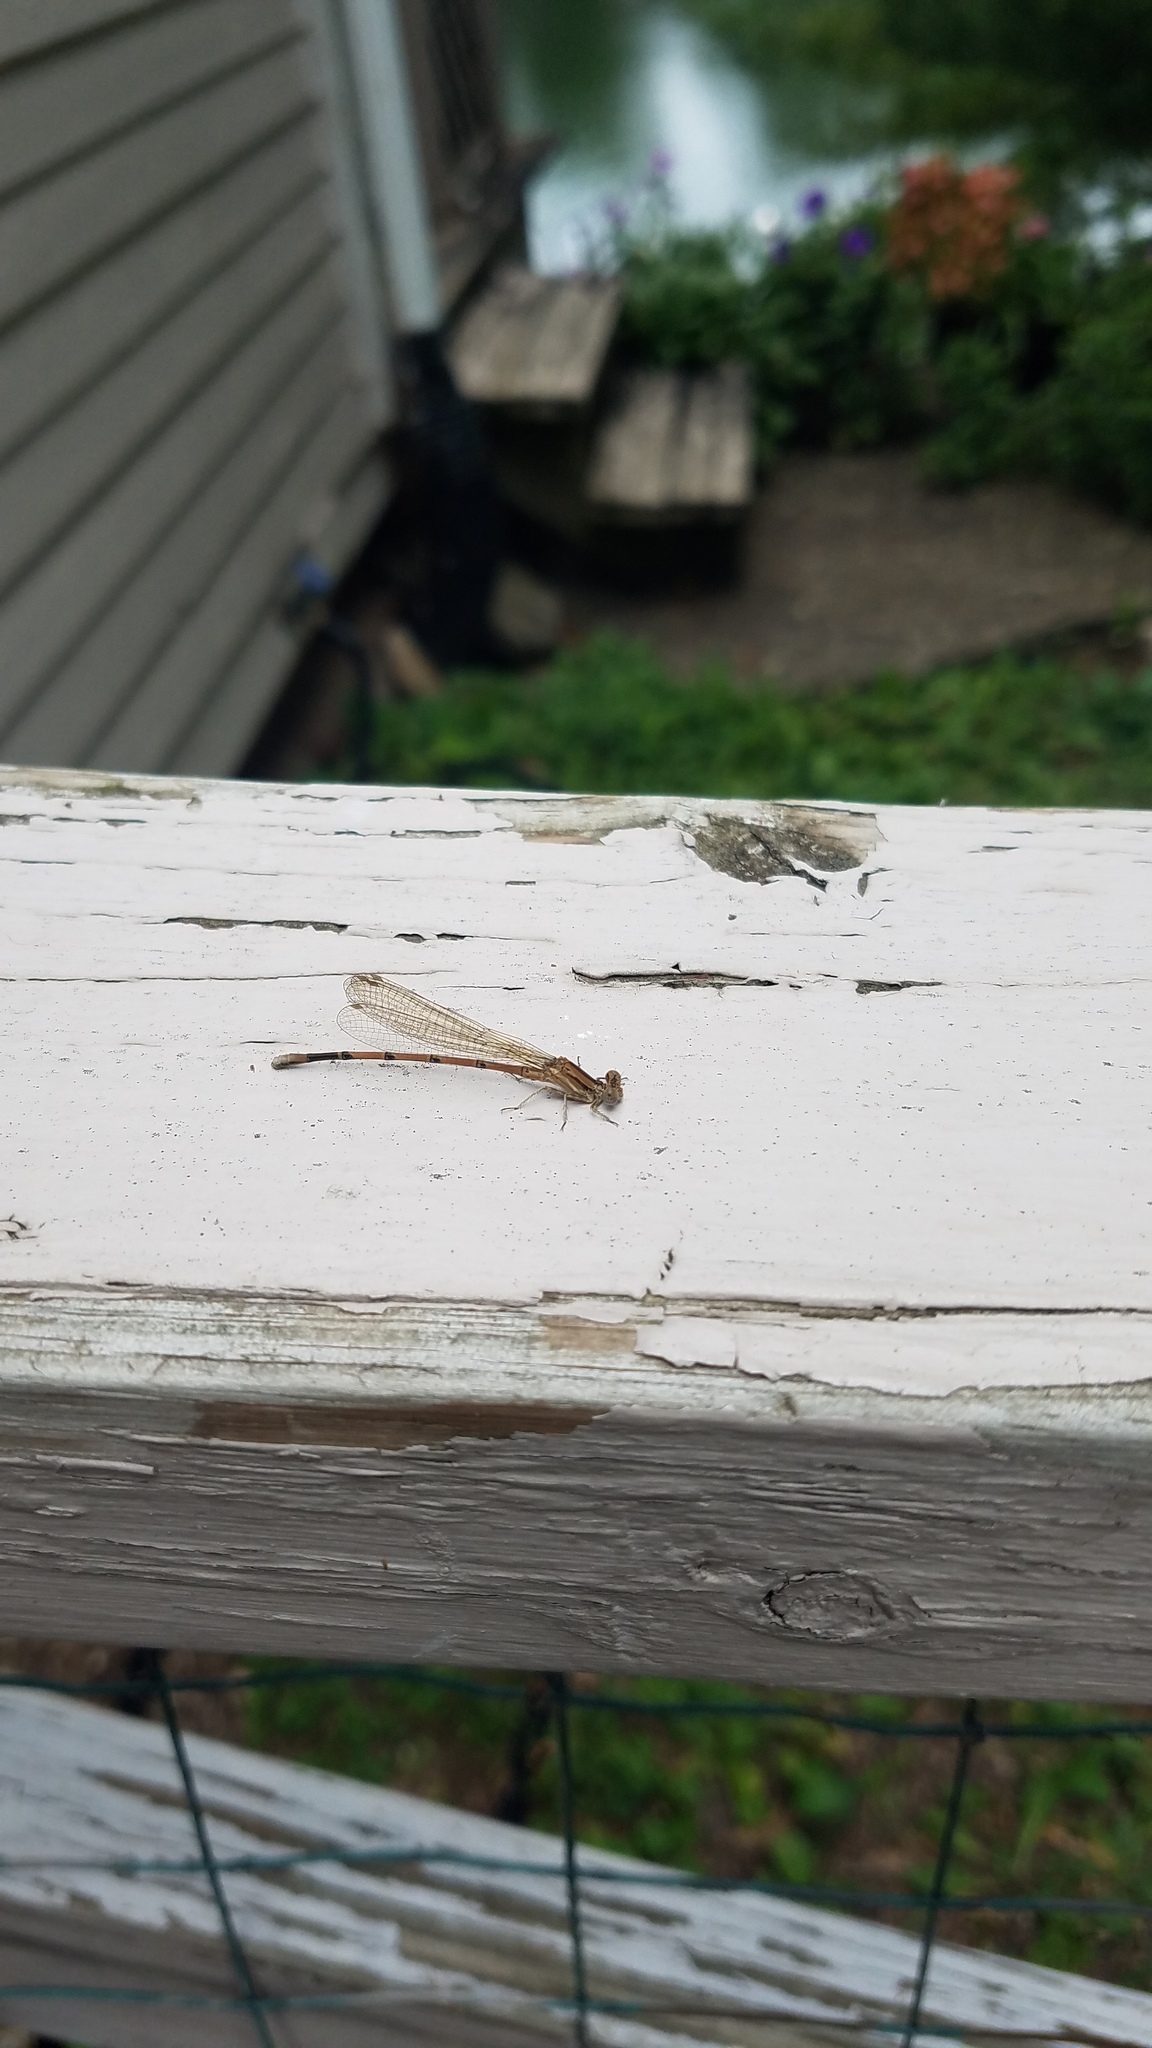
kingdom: Animalia
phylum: Arthropoda
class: Insecta
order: Odonata
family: Coenagrionidae
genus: Argia
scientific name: Argia fumipennis
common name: Variable dancer
